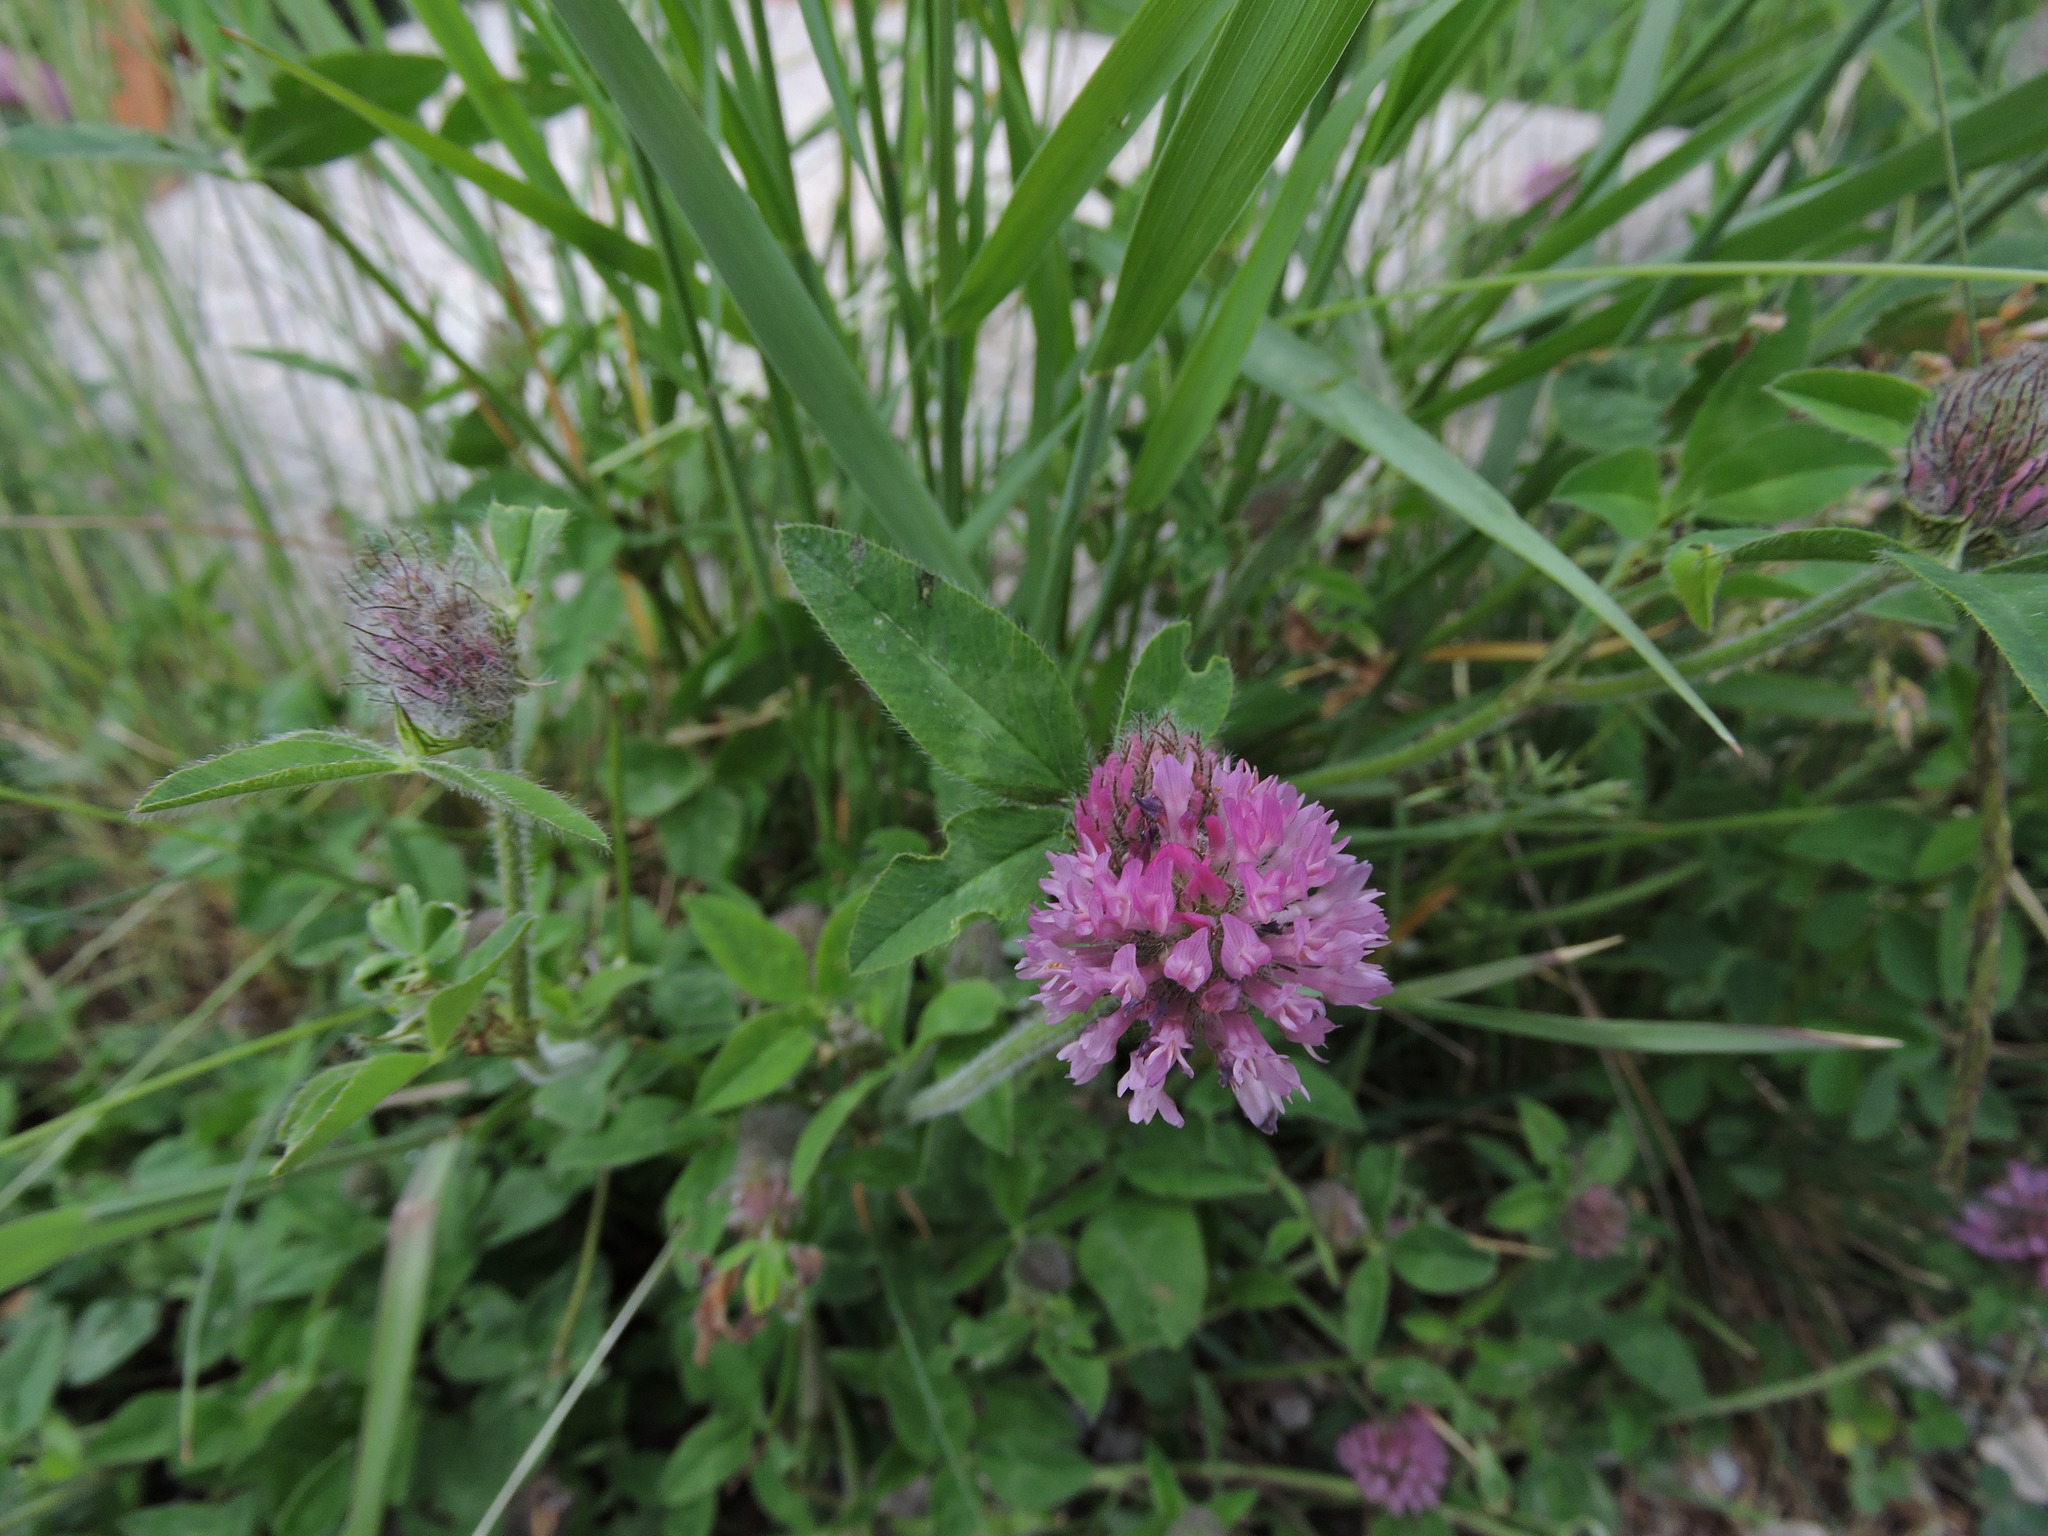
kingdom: Plantae
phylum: Tracheophyta
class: Magnoliopsida
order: Fabales
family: Fabaceae
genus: Trifolium
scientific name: Trifolium pratense
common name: Red clover
